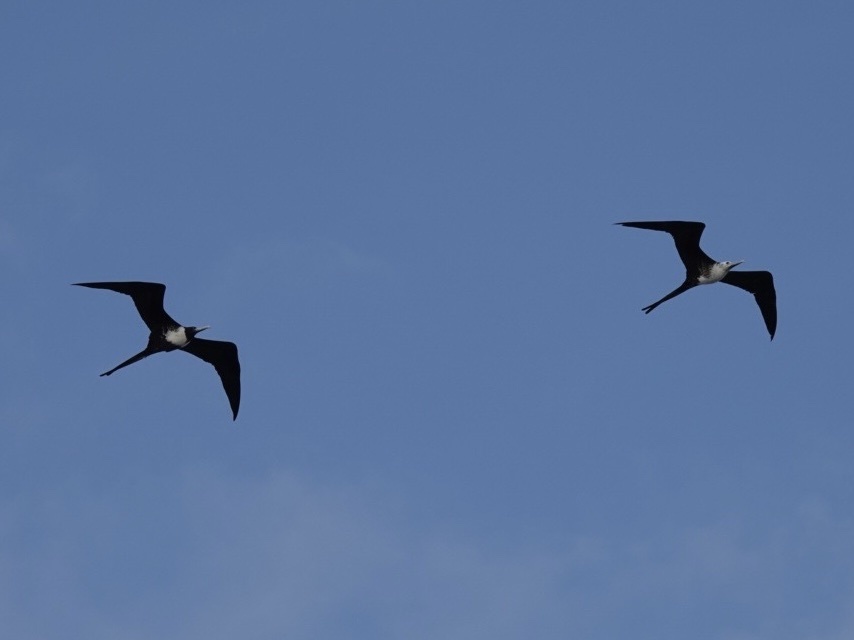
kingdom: Animalia
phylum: Chordata
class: Aves
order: Suliformes
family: Fregatidae
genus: Fregata
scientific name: Fregata magnificens
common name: Magnificent frigatebird
